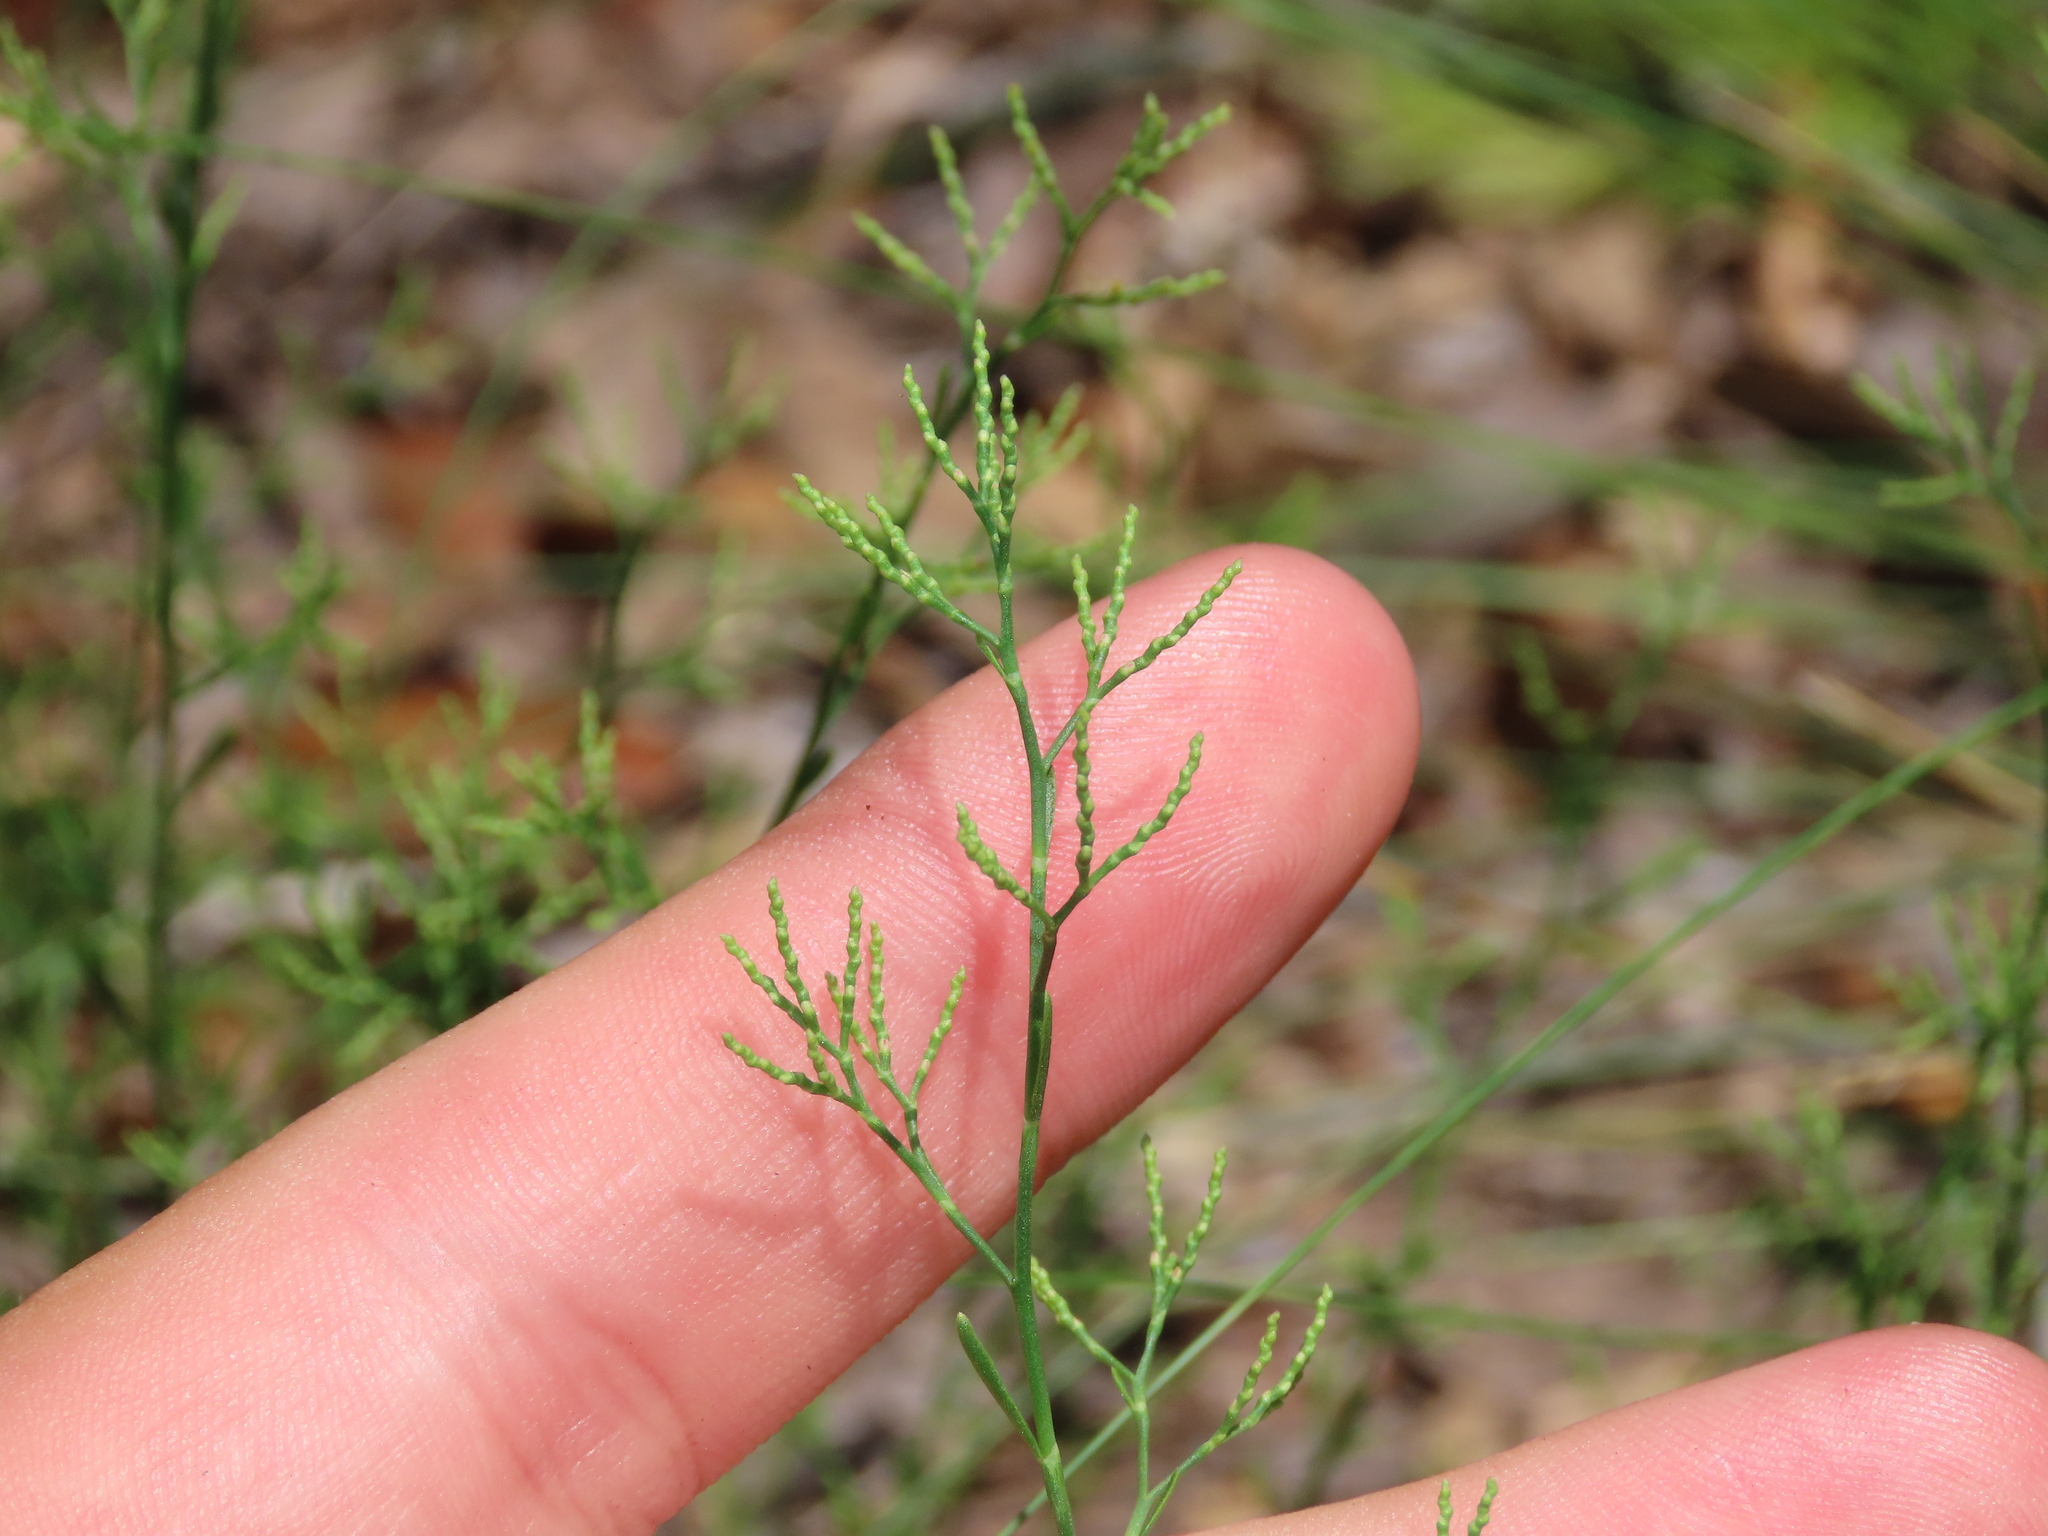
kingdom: Plantae
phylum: Tracheophyta
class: Magnoliopsida
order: Caryophyllales
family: Polygonaceae
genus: Polygonella
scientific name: Polygonella polygama
